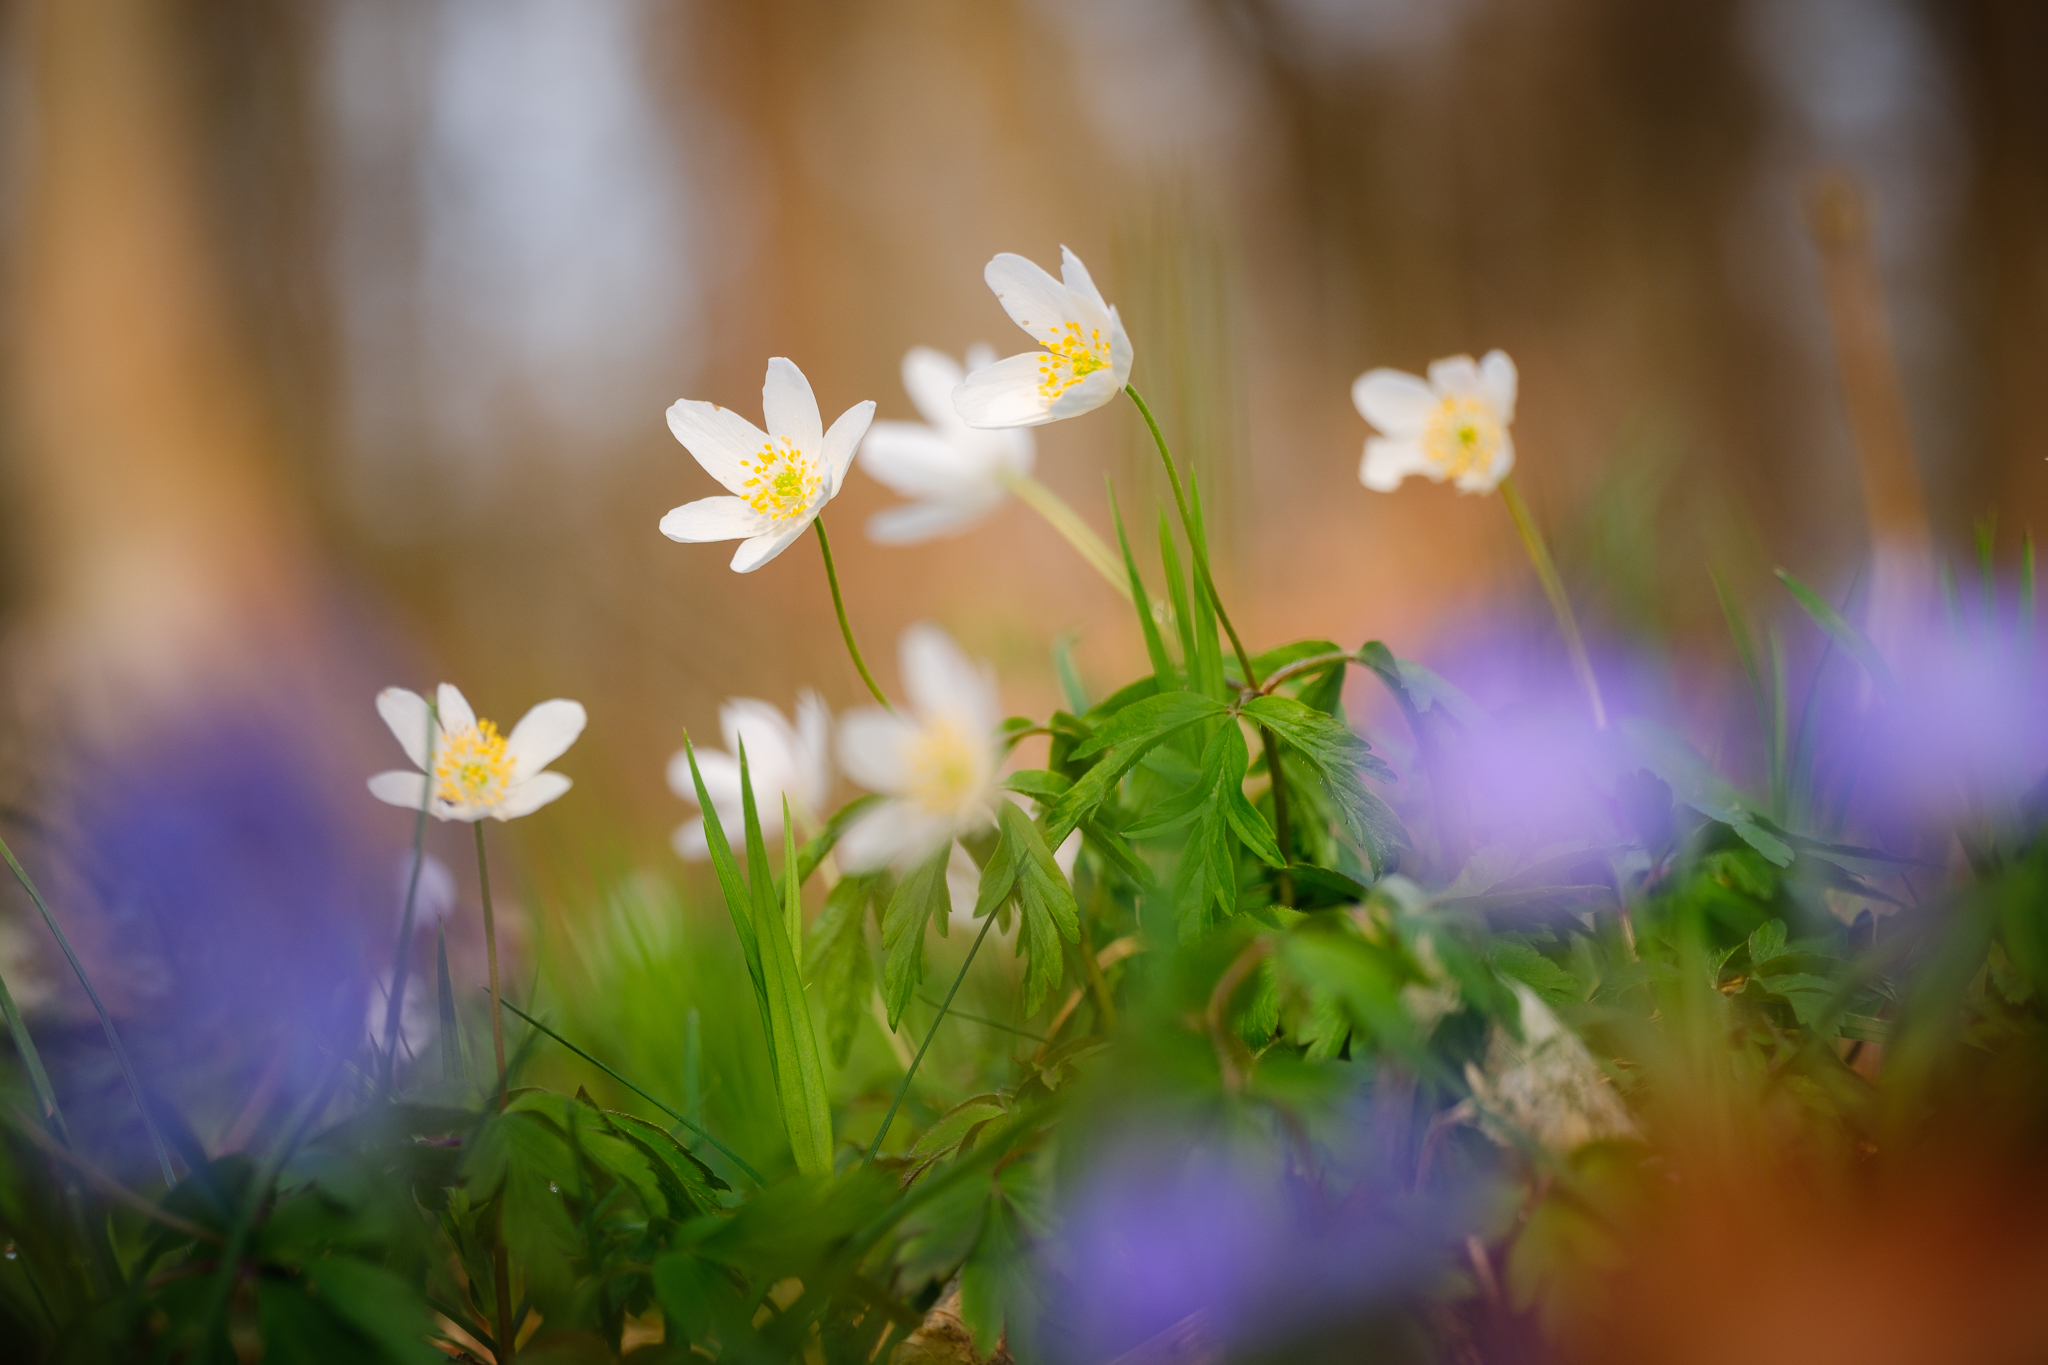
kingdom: Plantae
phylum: Tracheophyta
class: Magnoliopsida
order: Ranunculales
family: Ranunculaceae
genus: Anemone
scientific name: Anemone nemorosa
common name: Wood anemone
